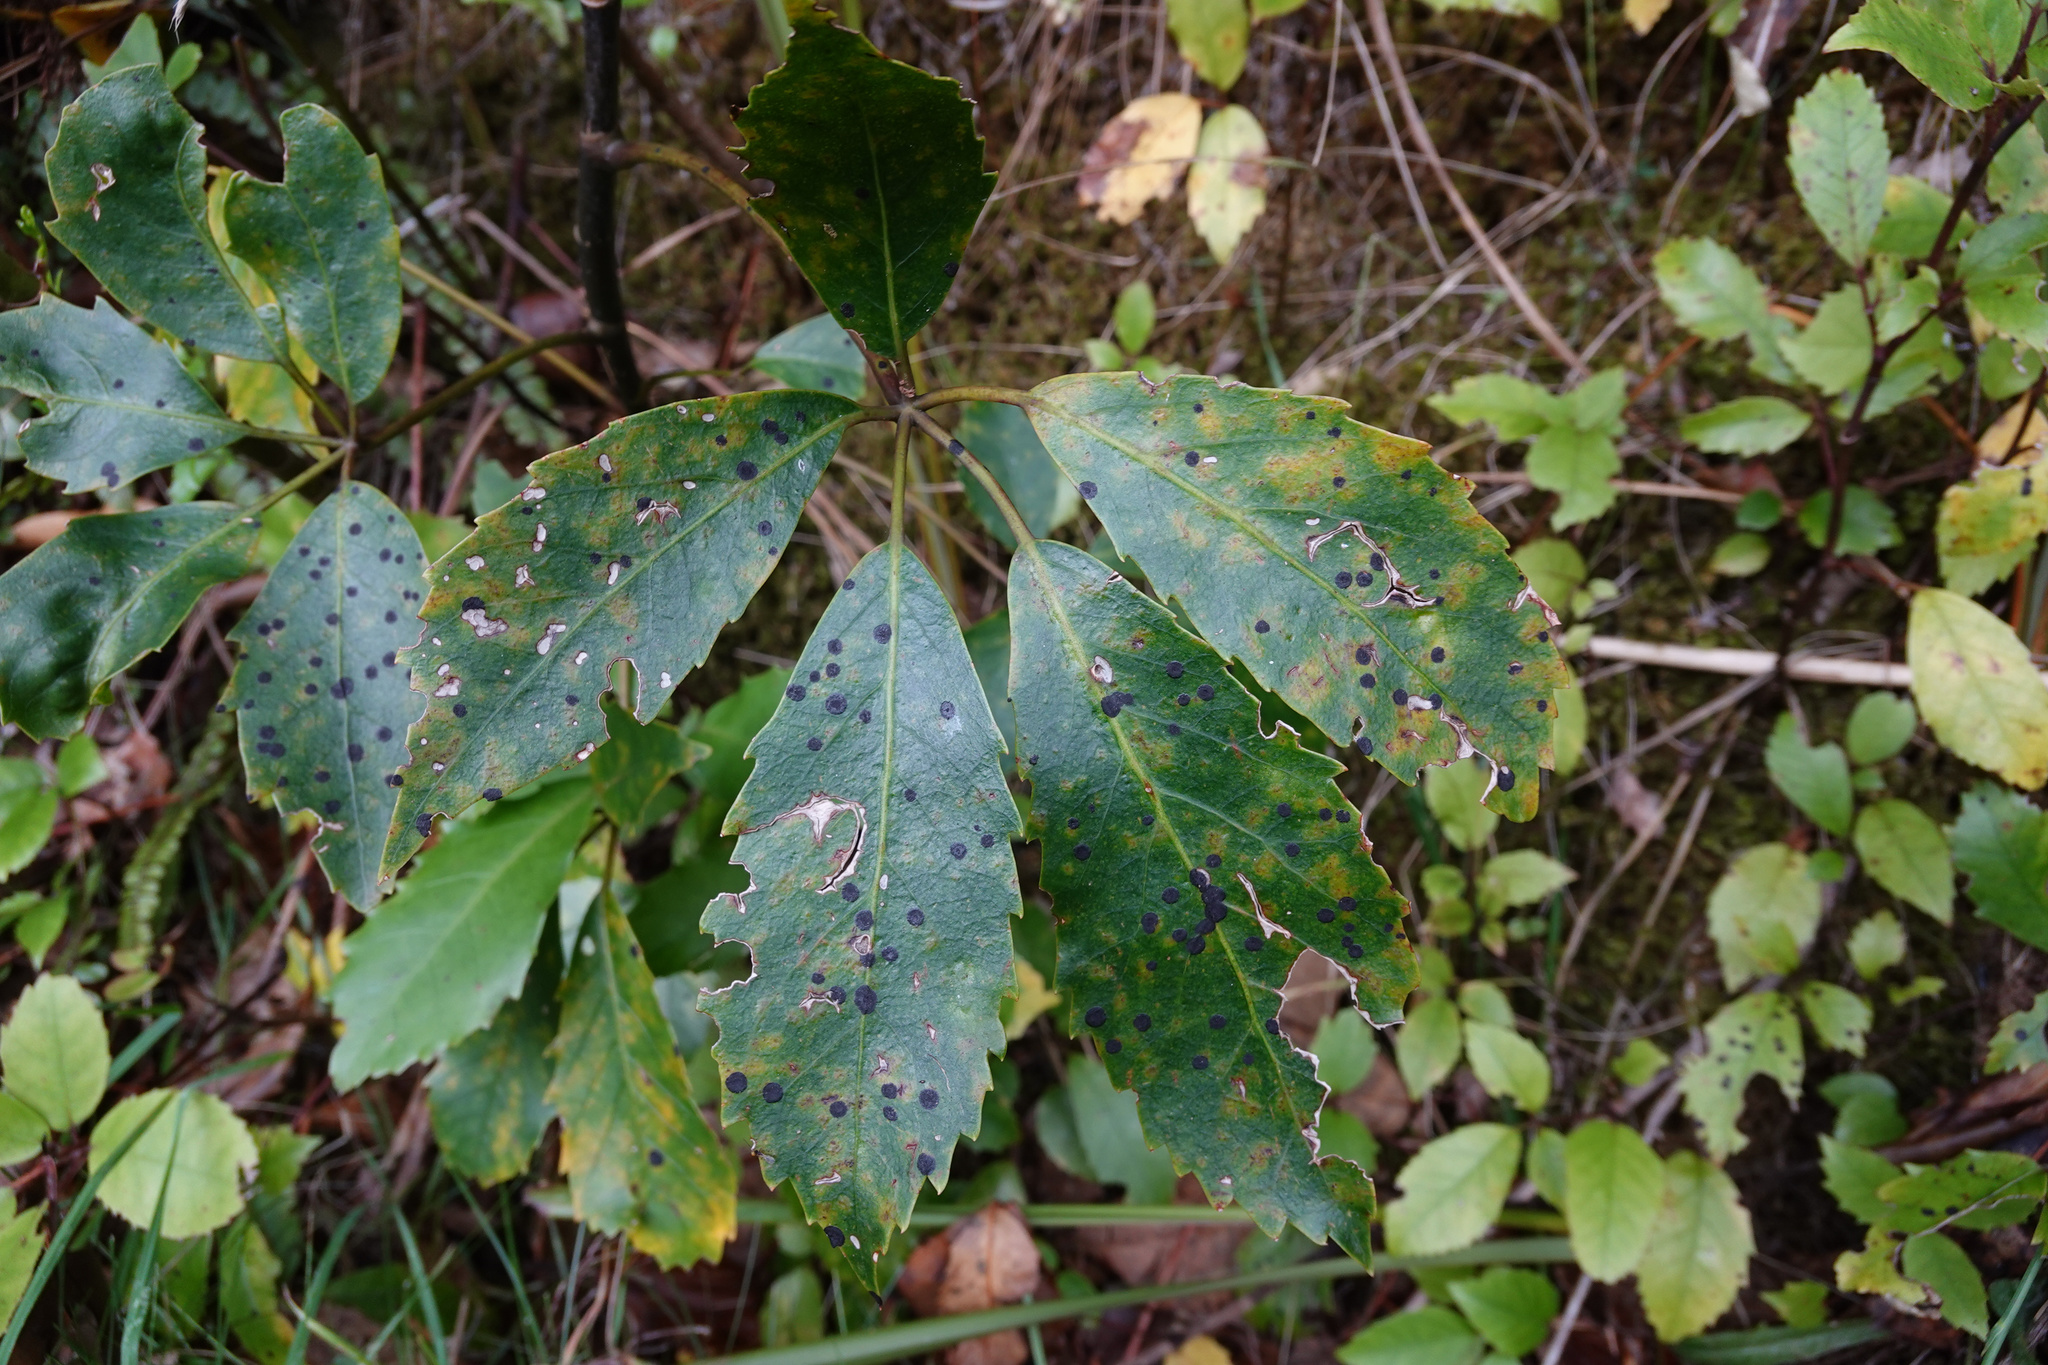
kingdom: Fungi
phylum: Ascomycota
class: Dothideomycetes
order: Asterinales
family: Asterinaceae
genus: Placosoma
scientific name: Placosoma nothopanacis
